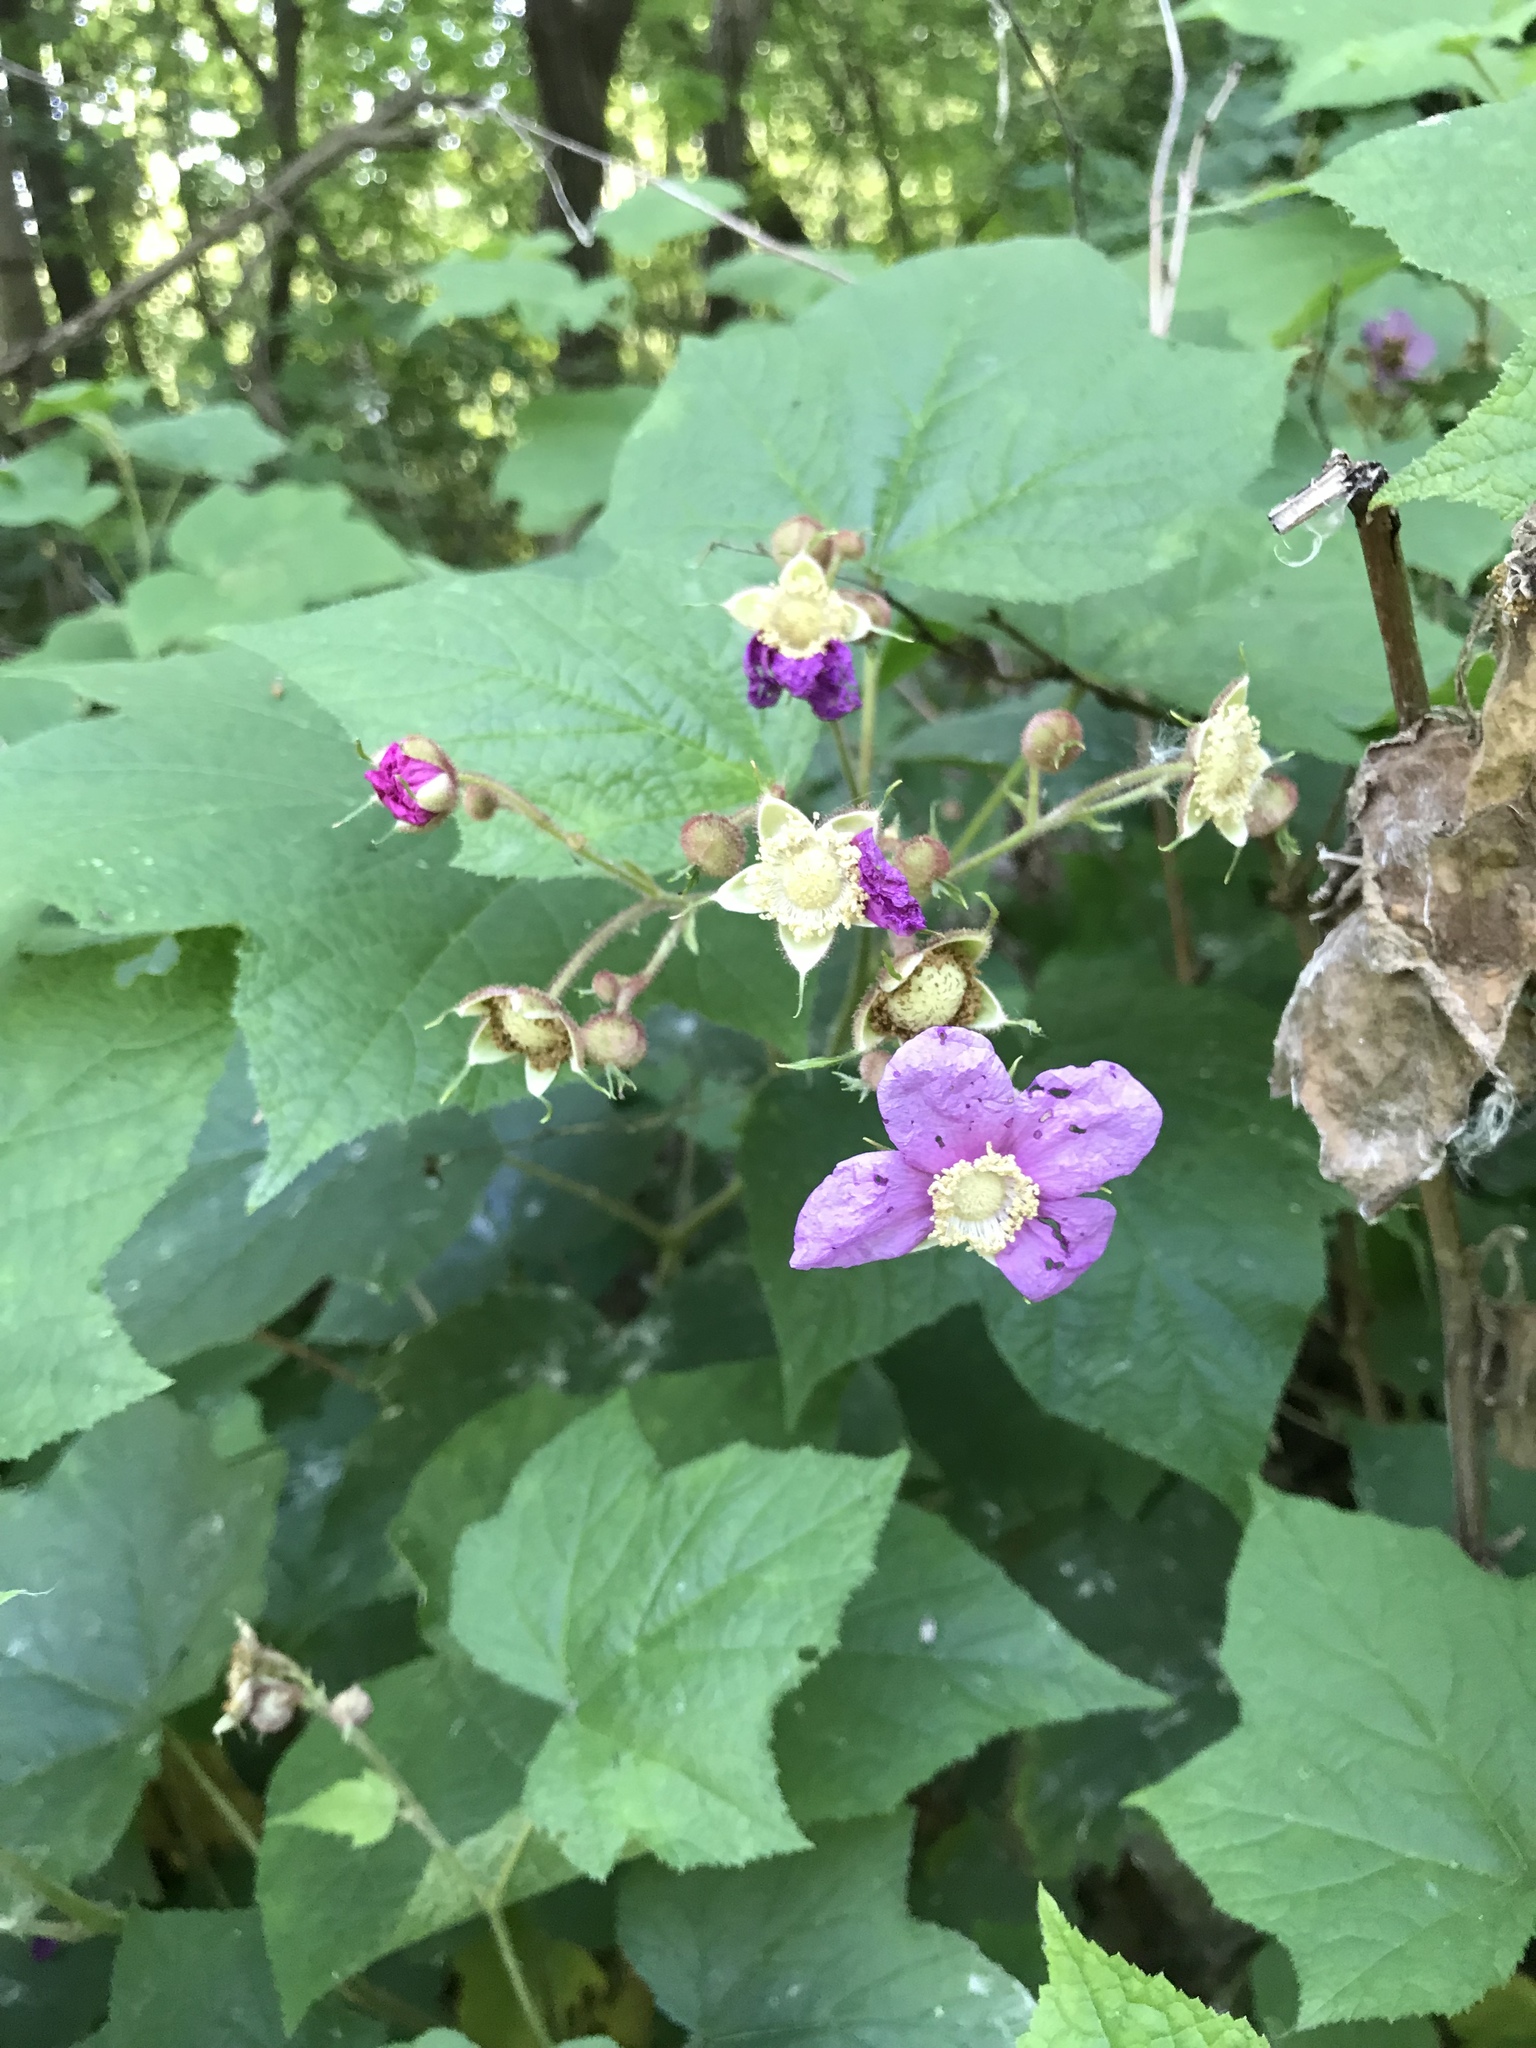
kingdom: Plantae
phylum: Tracheophyta
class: Magnoliopsida
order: Rosales
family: Rosaceae
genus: Rubus
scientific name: Rubus odoratus
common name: Purple-flowered raspberry
